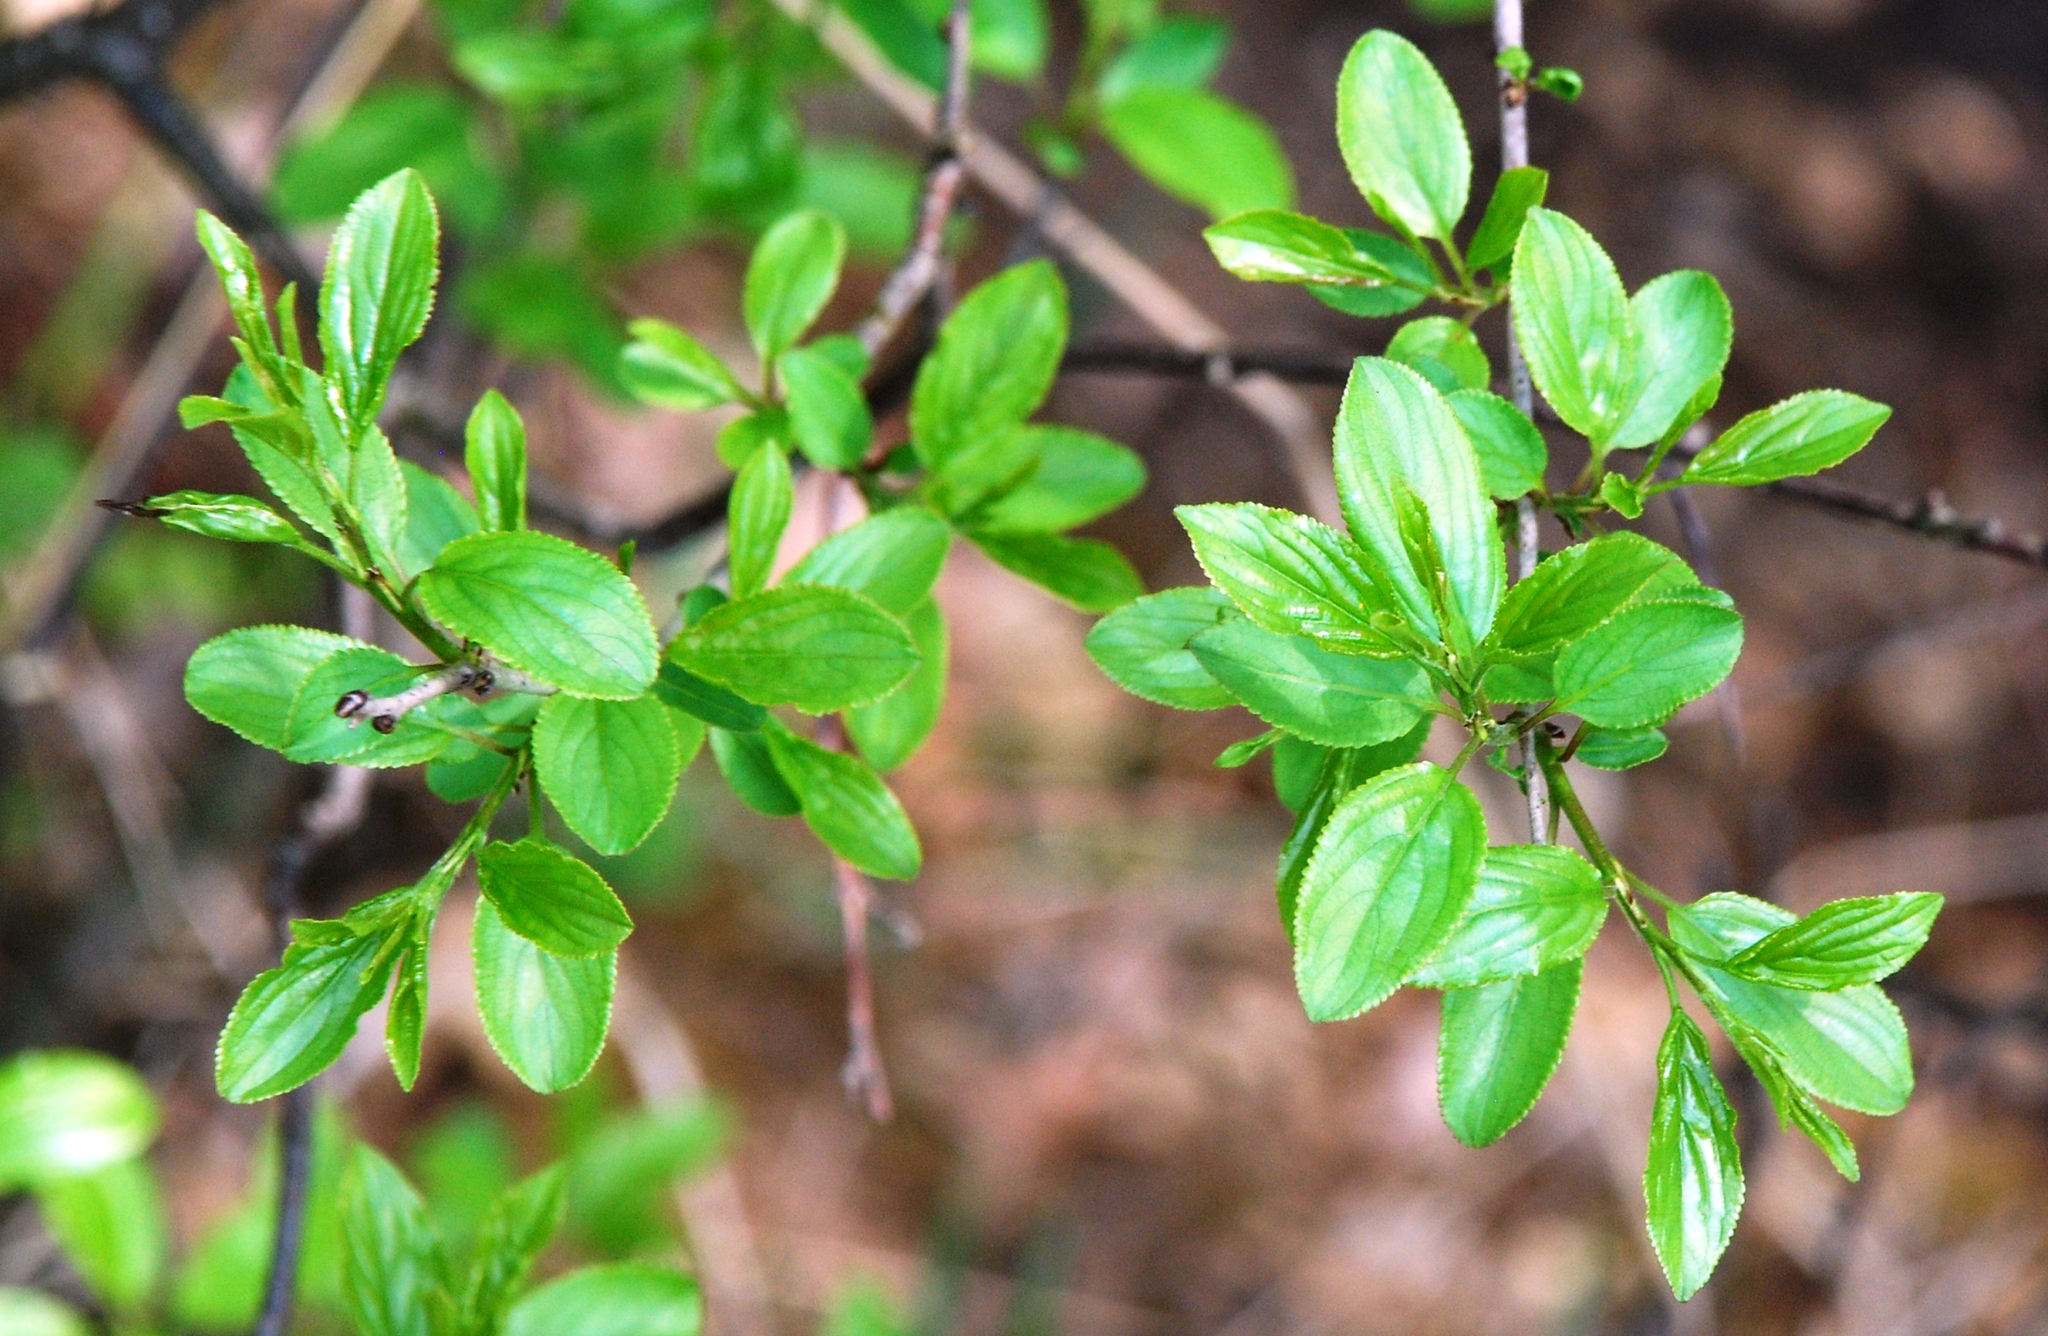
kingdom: Plantae
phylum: Tracheophyta
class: Magnoliopsida
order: Rosales
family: Rhamnaceae
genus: Rhamnus
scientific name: Rhamnus cathartica
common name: Common buckthorn
